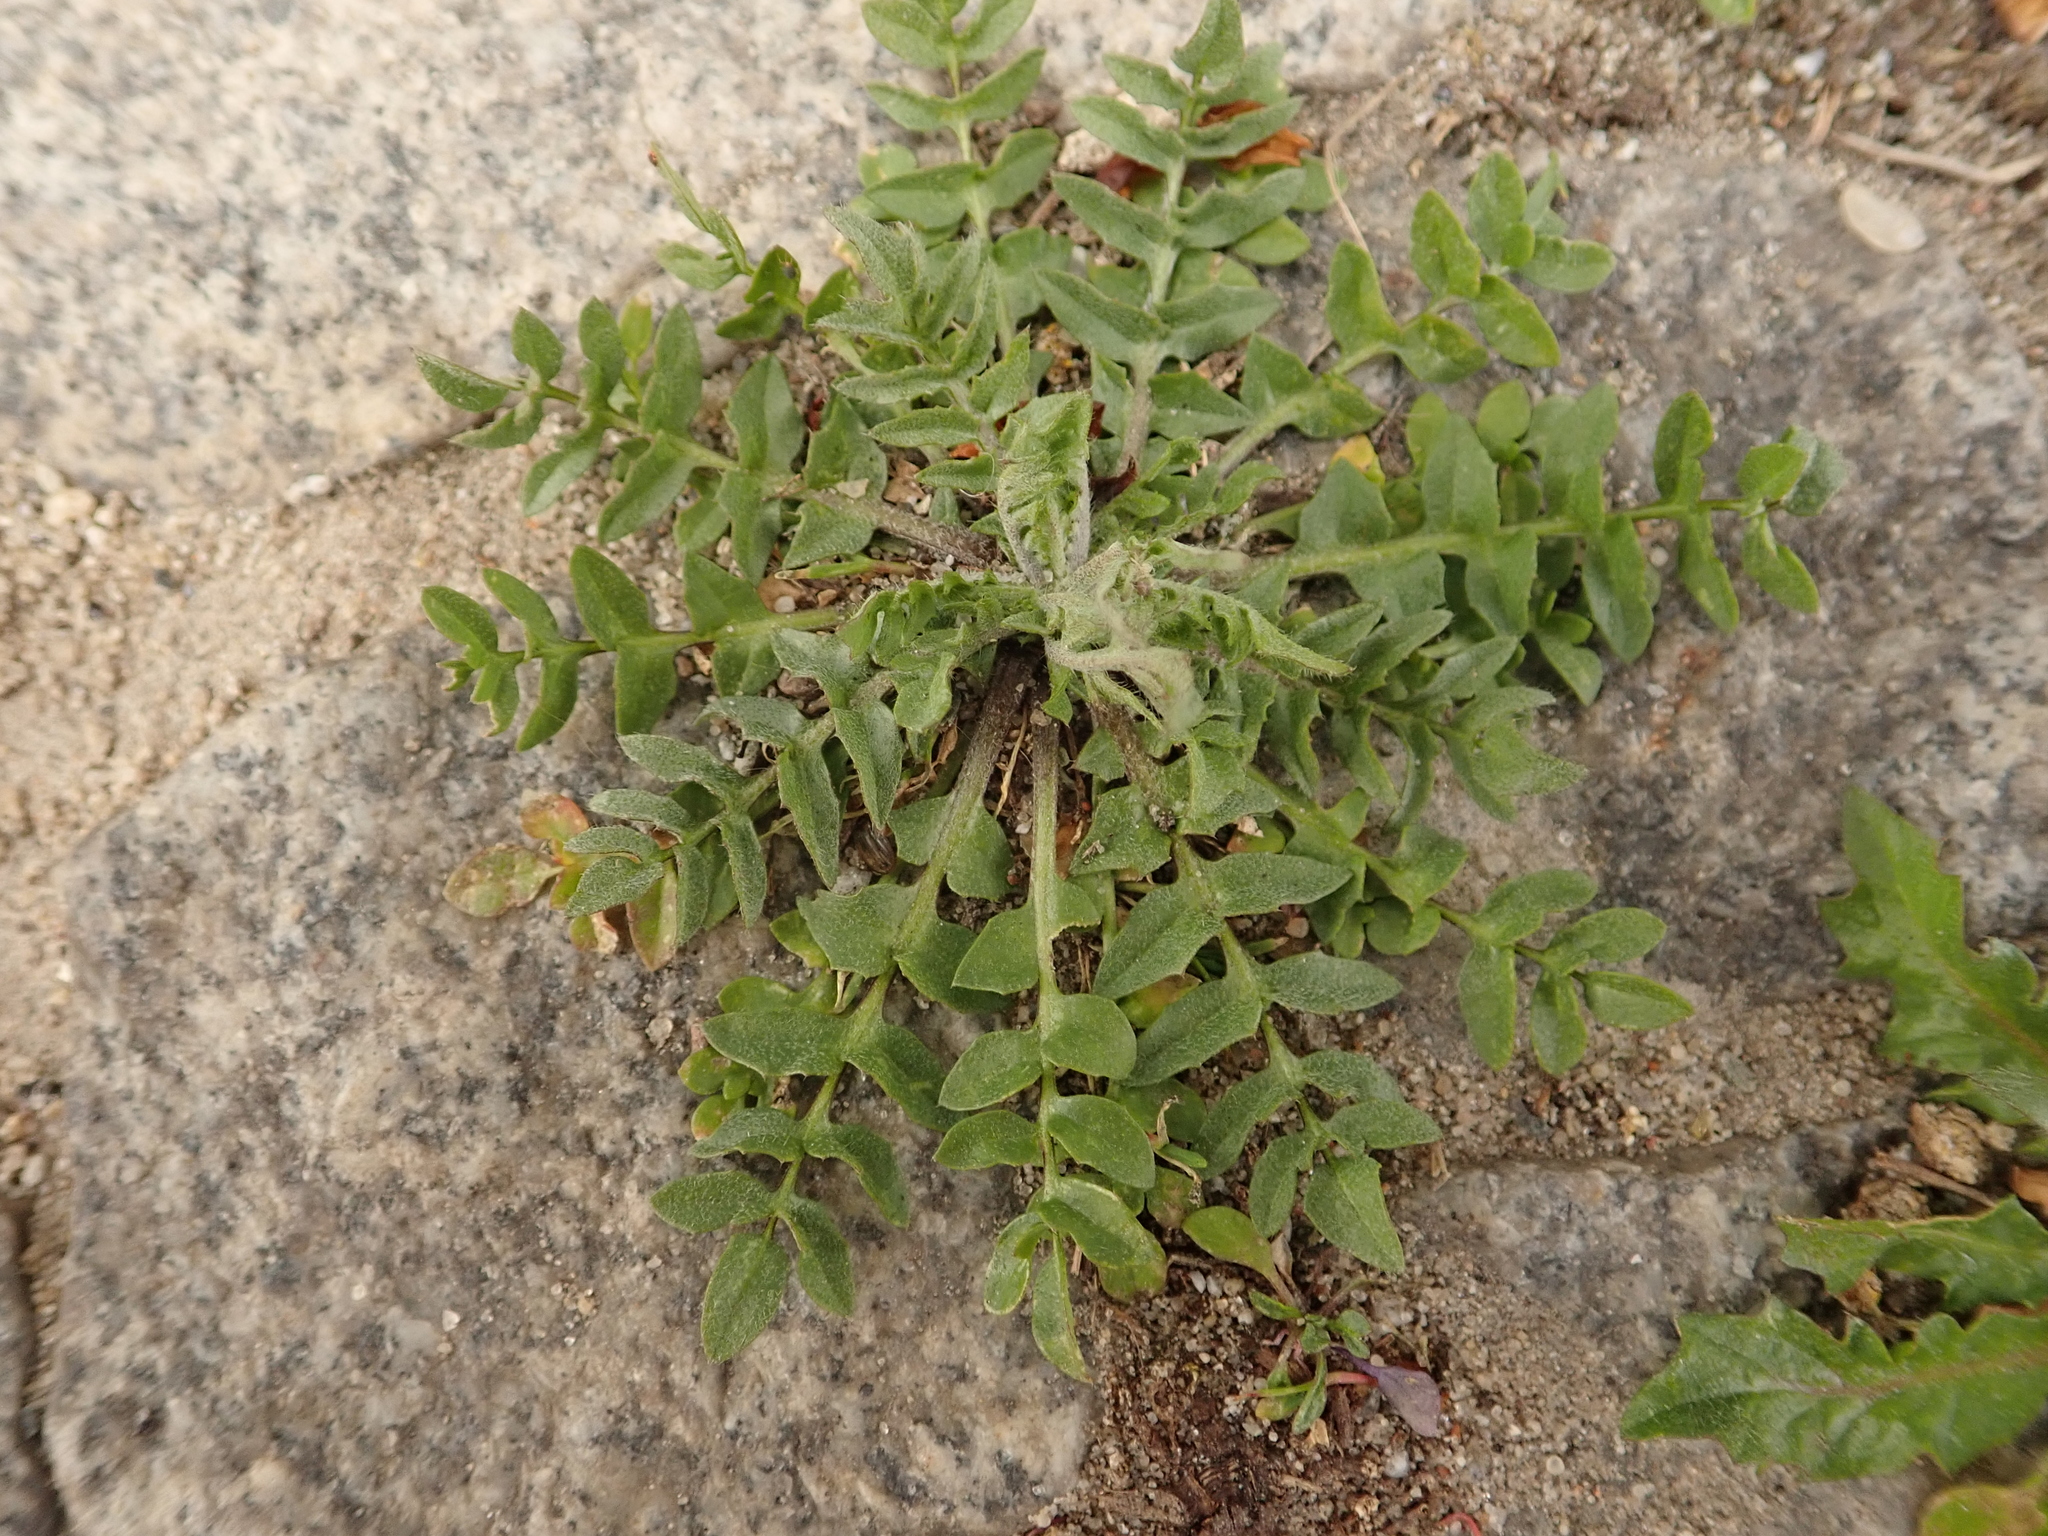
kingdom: Plantae
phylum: Tracheophyta
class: Magnoliopsida
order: Brassicales
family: Brassicaceae
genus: Capsella
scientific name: Capsella bursa-pastoris
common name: Shepherd's purse
